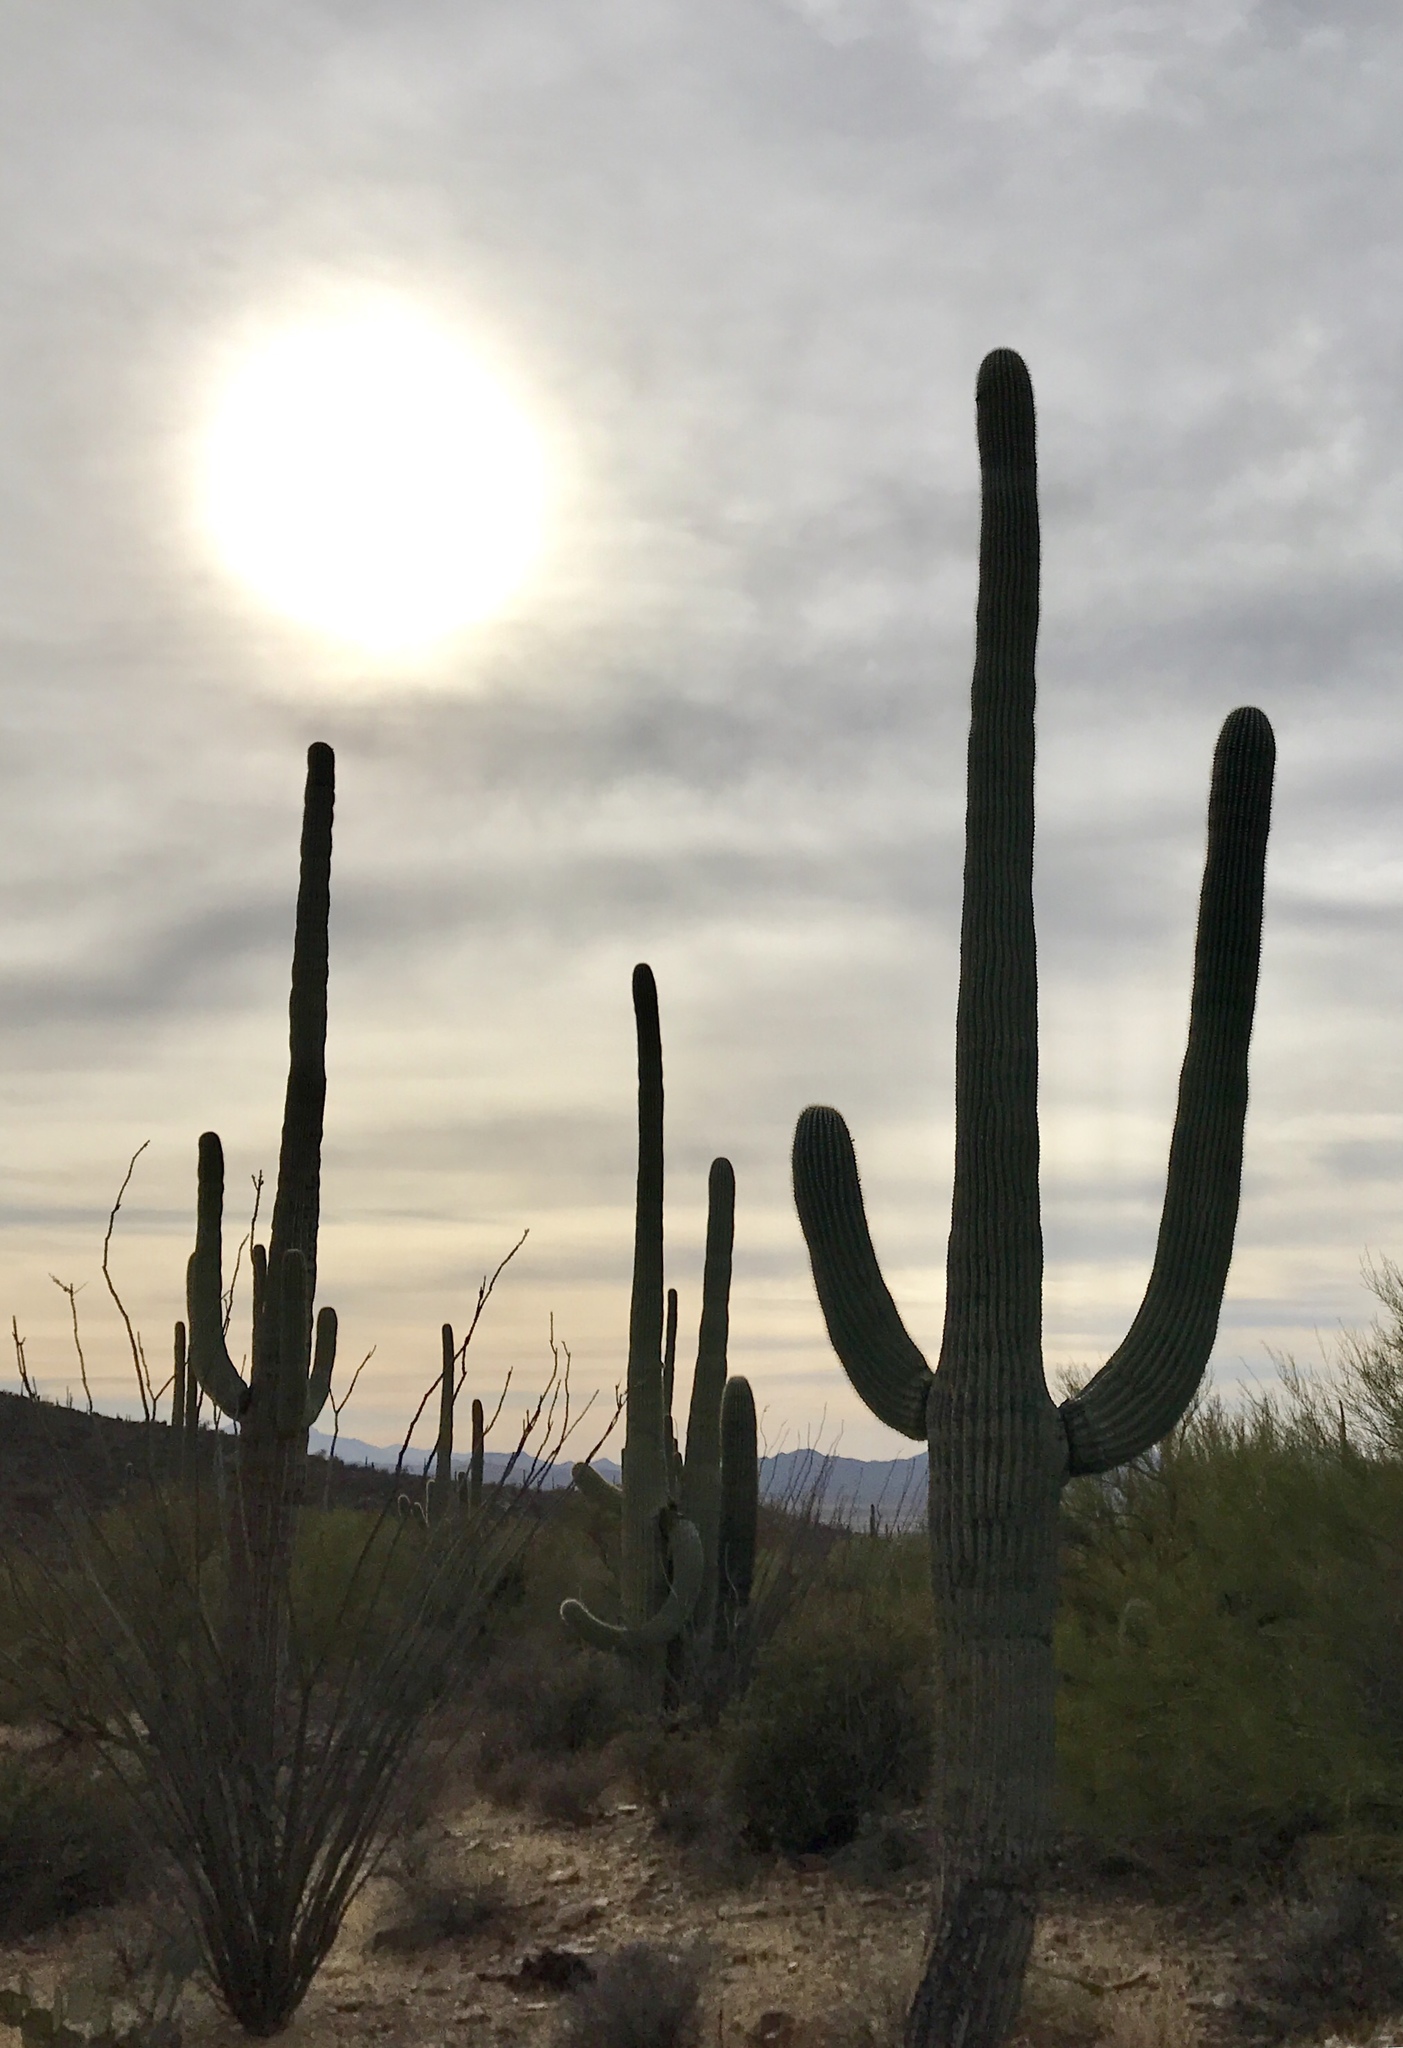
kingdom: Plantae
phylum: Tracheophyta
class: Magnoliopsida
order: Caryophyllales
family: Cactaceae
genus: Carnegiea
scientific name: Carnegiea gigantea
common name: Saguaro
